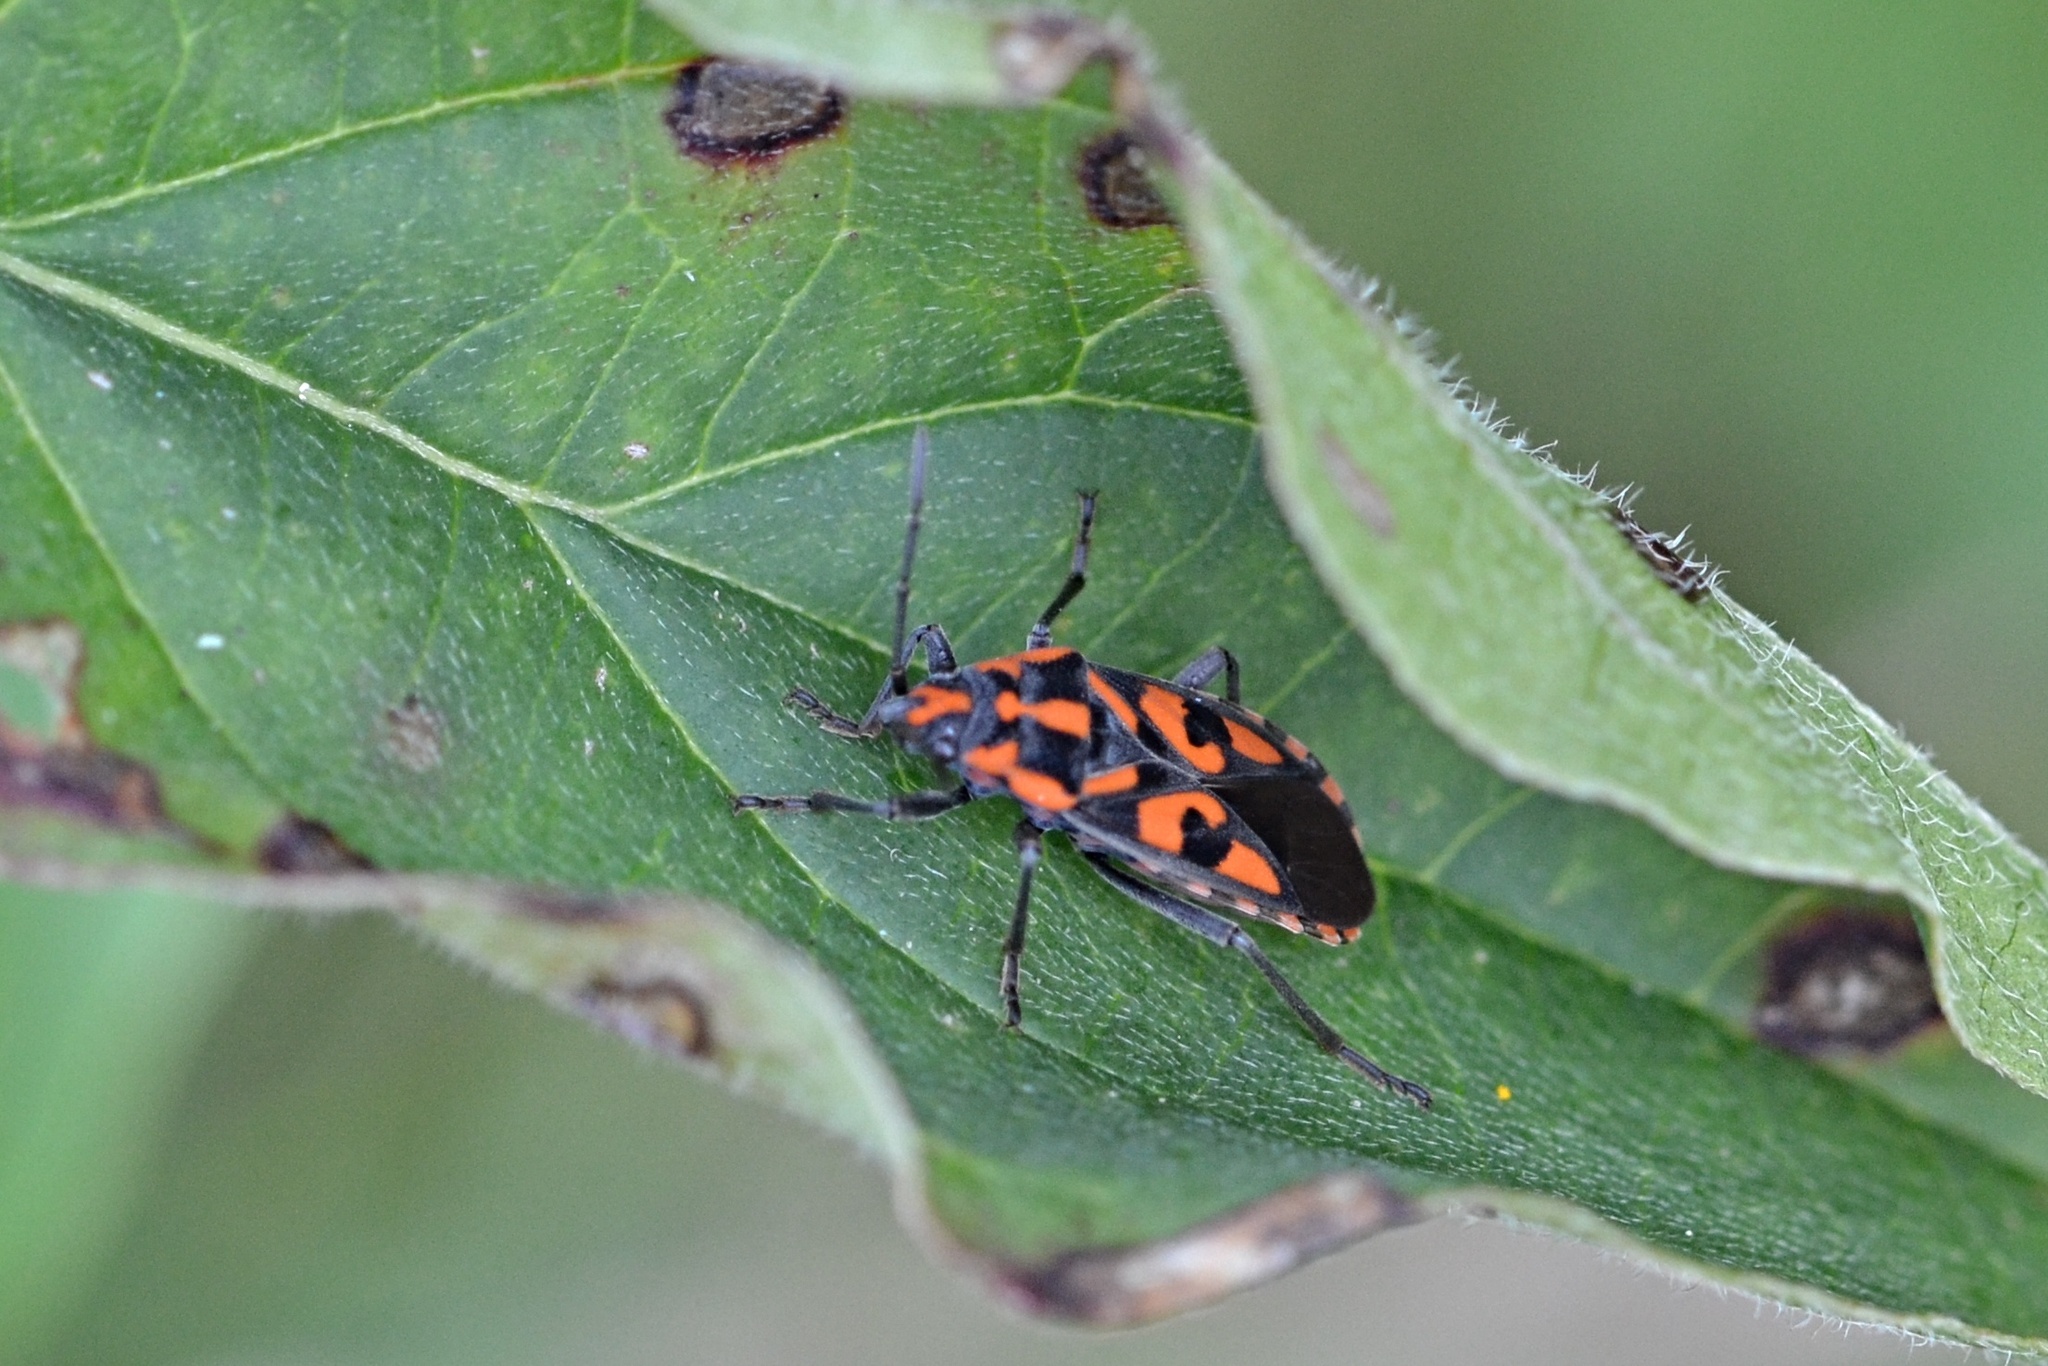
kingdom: Animalia
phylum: Arthropoda
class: Insecta
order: Hemiptera
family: Lygaeidae
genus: Spilostethus
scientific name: Spilostethus saxatilis
